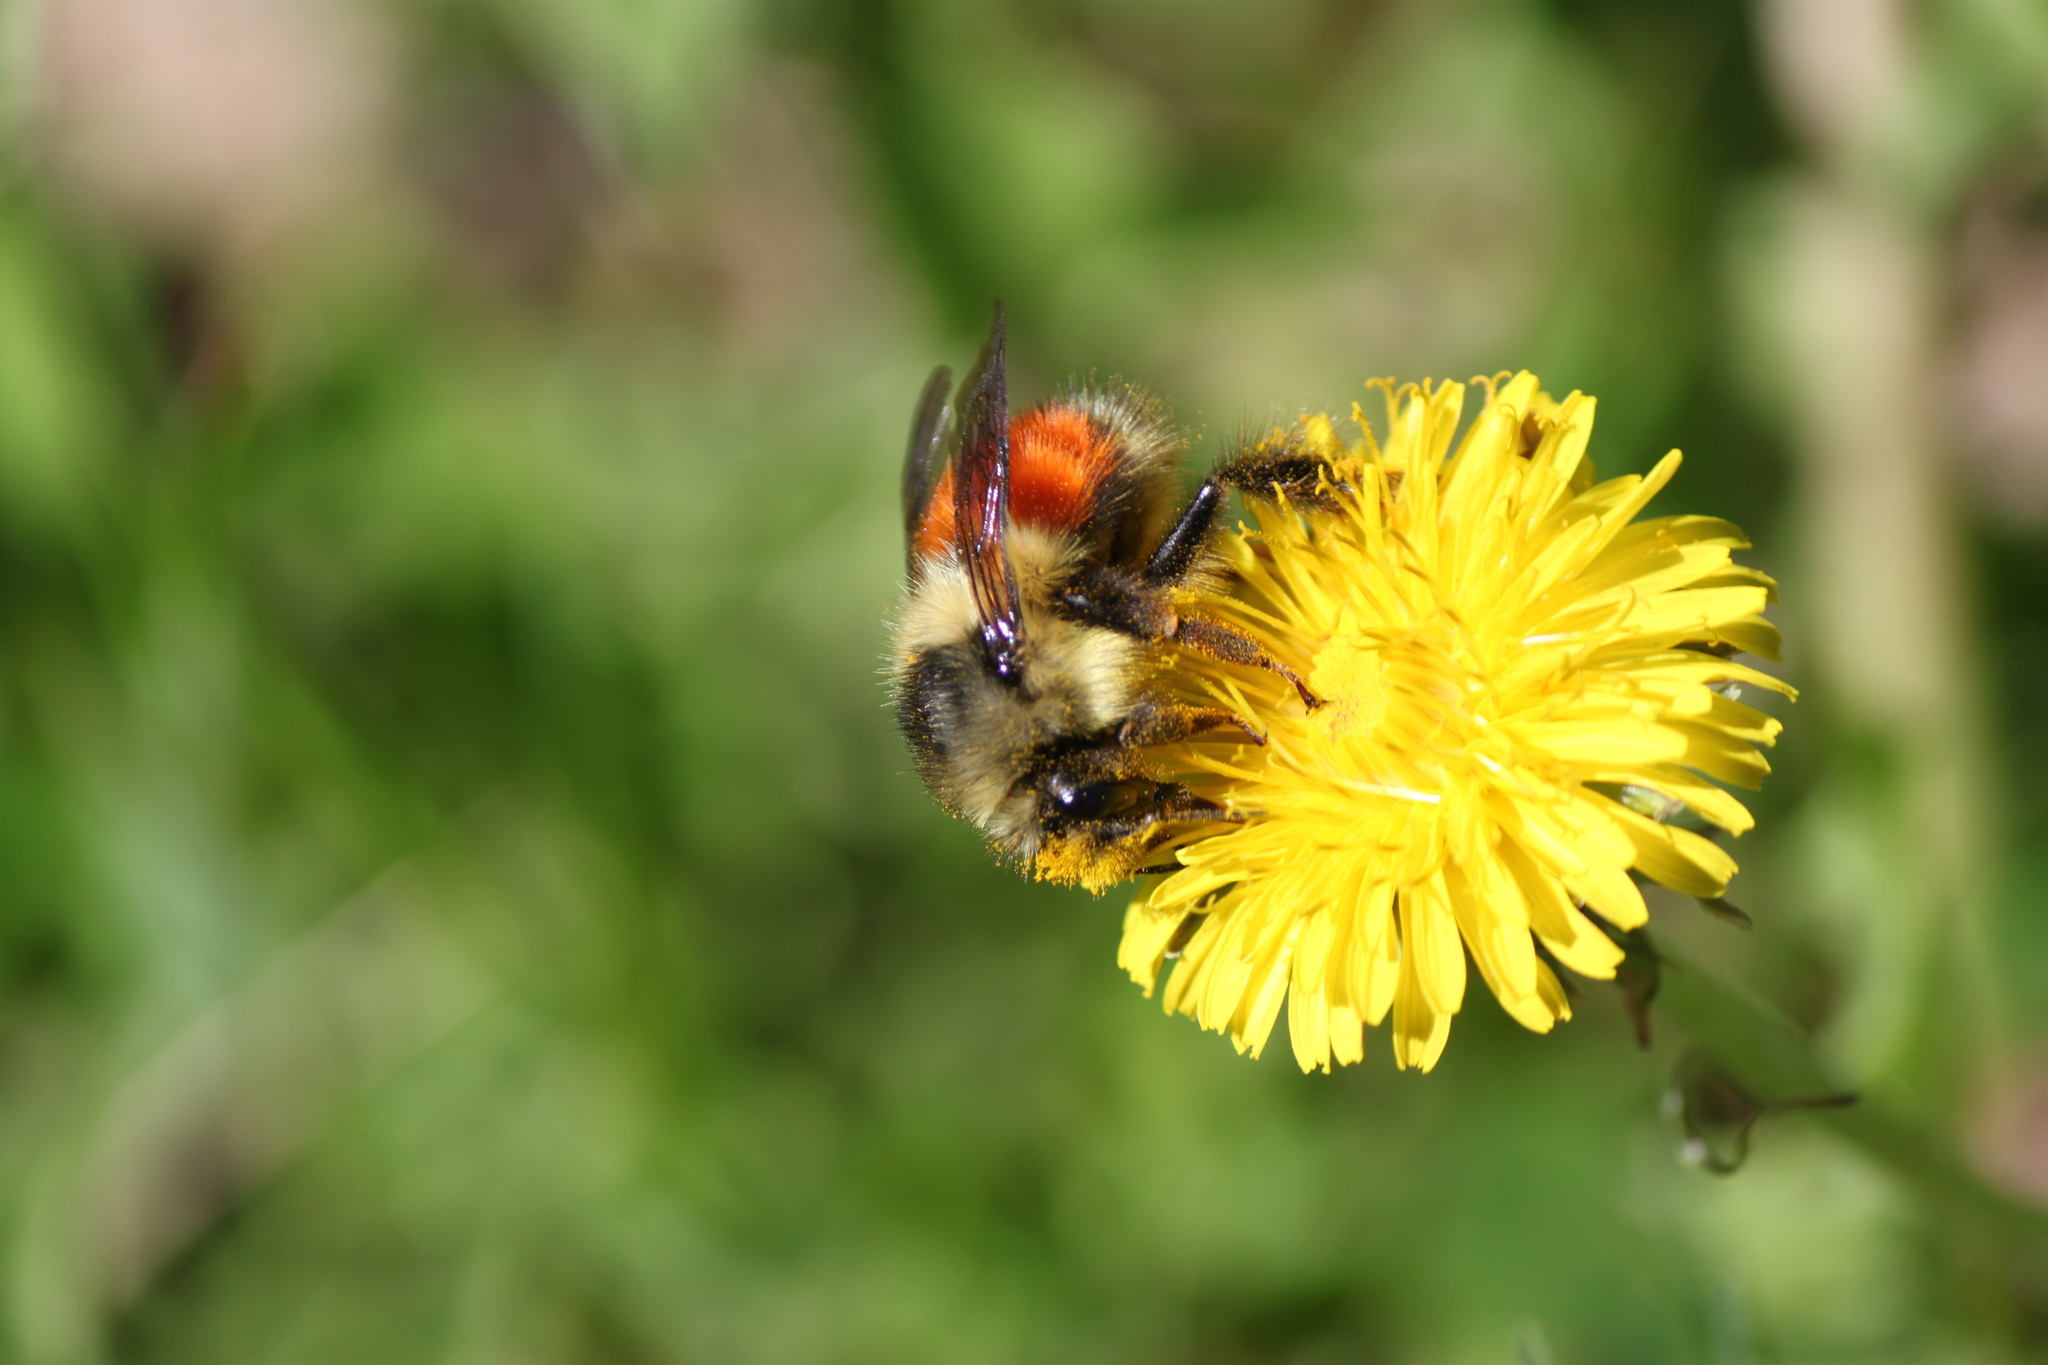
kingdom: Animalia
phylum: Arthropoda
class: Insecta
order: Hymenoptera
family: Apidae
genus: Bombus
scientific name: Bombus melanopygus
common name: Black tail bumble bee
